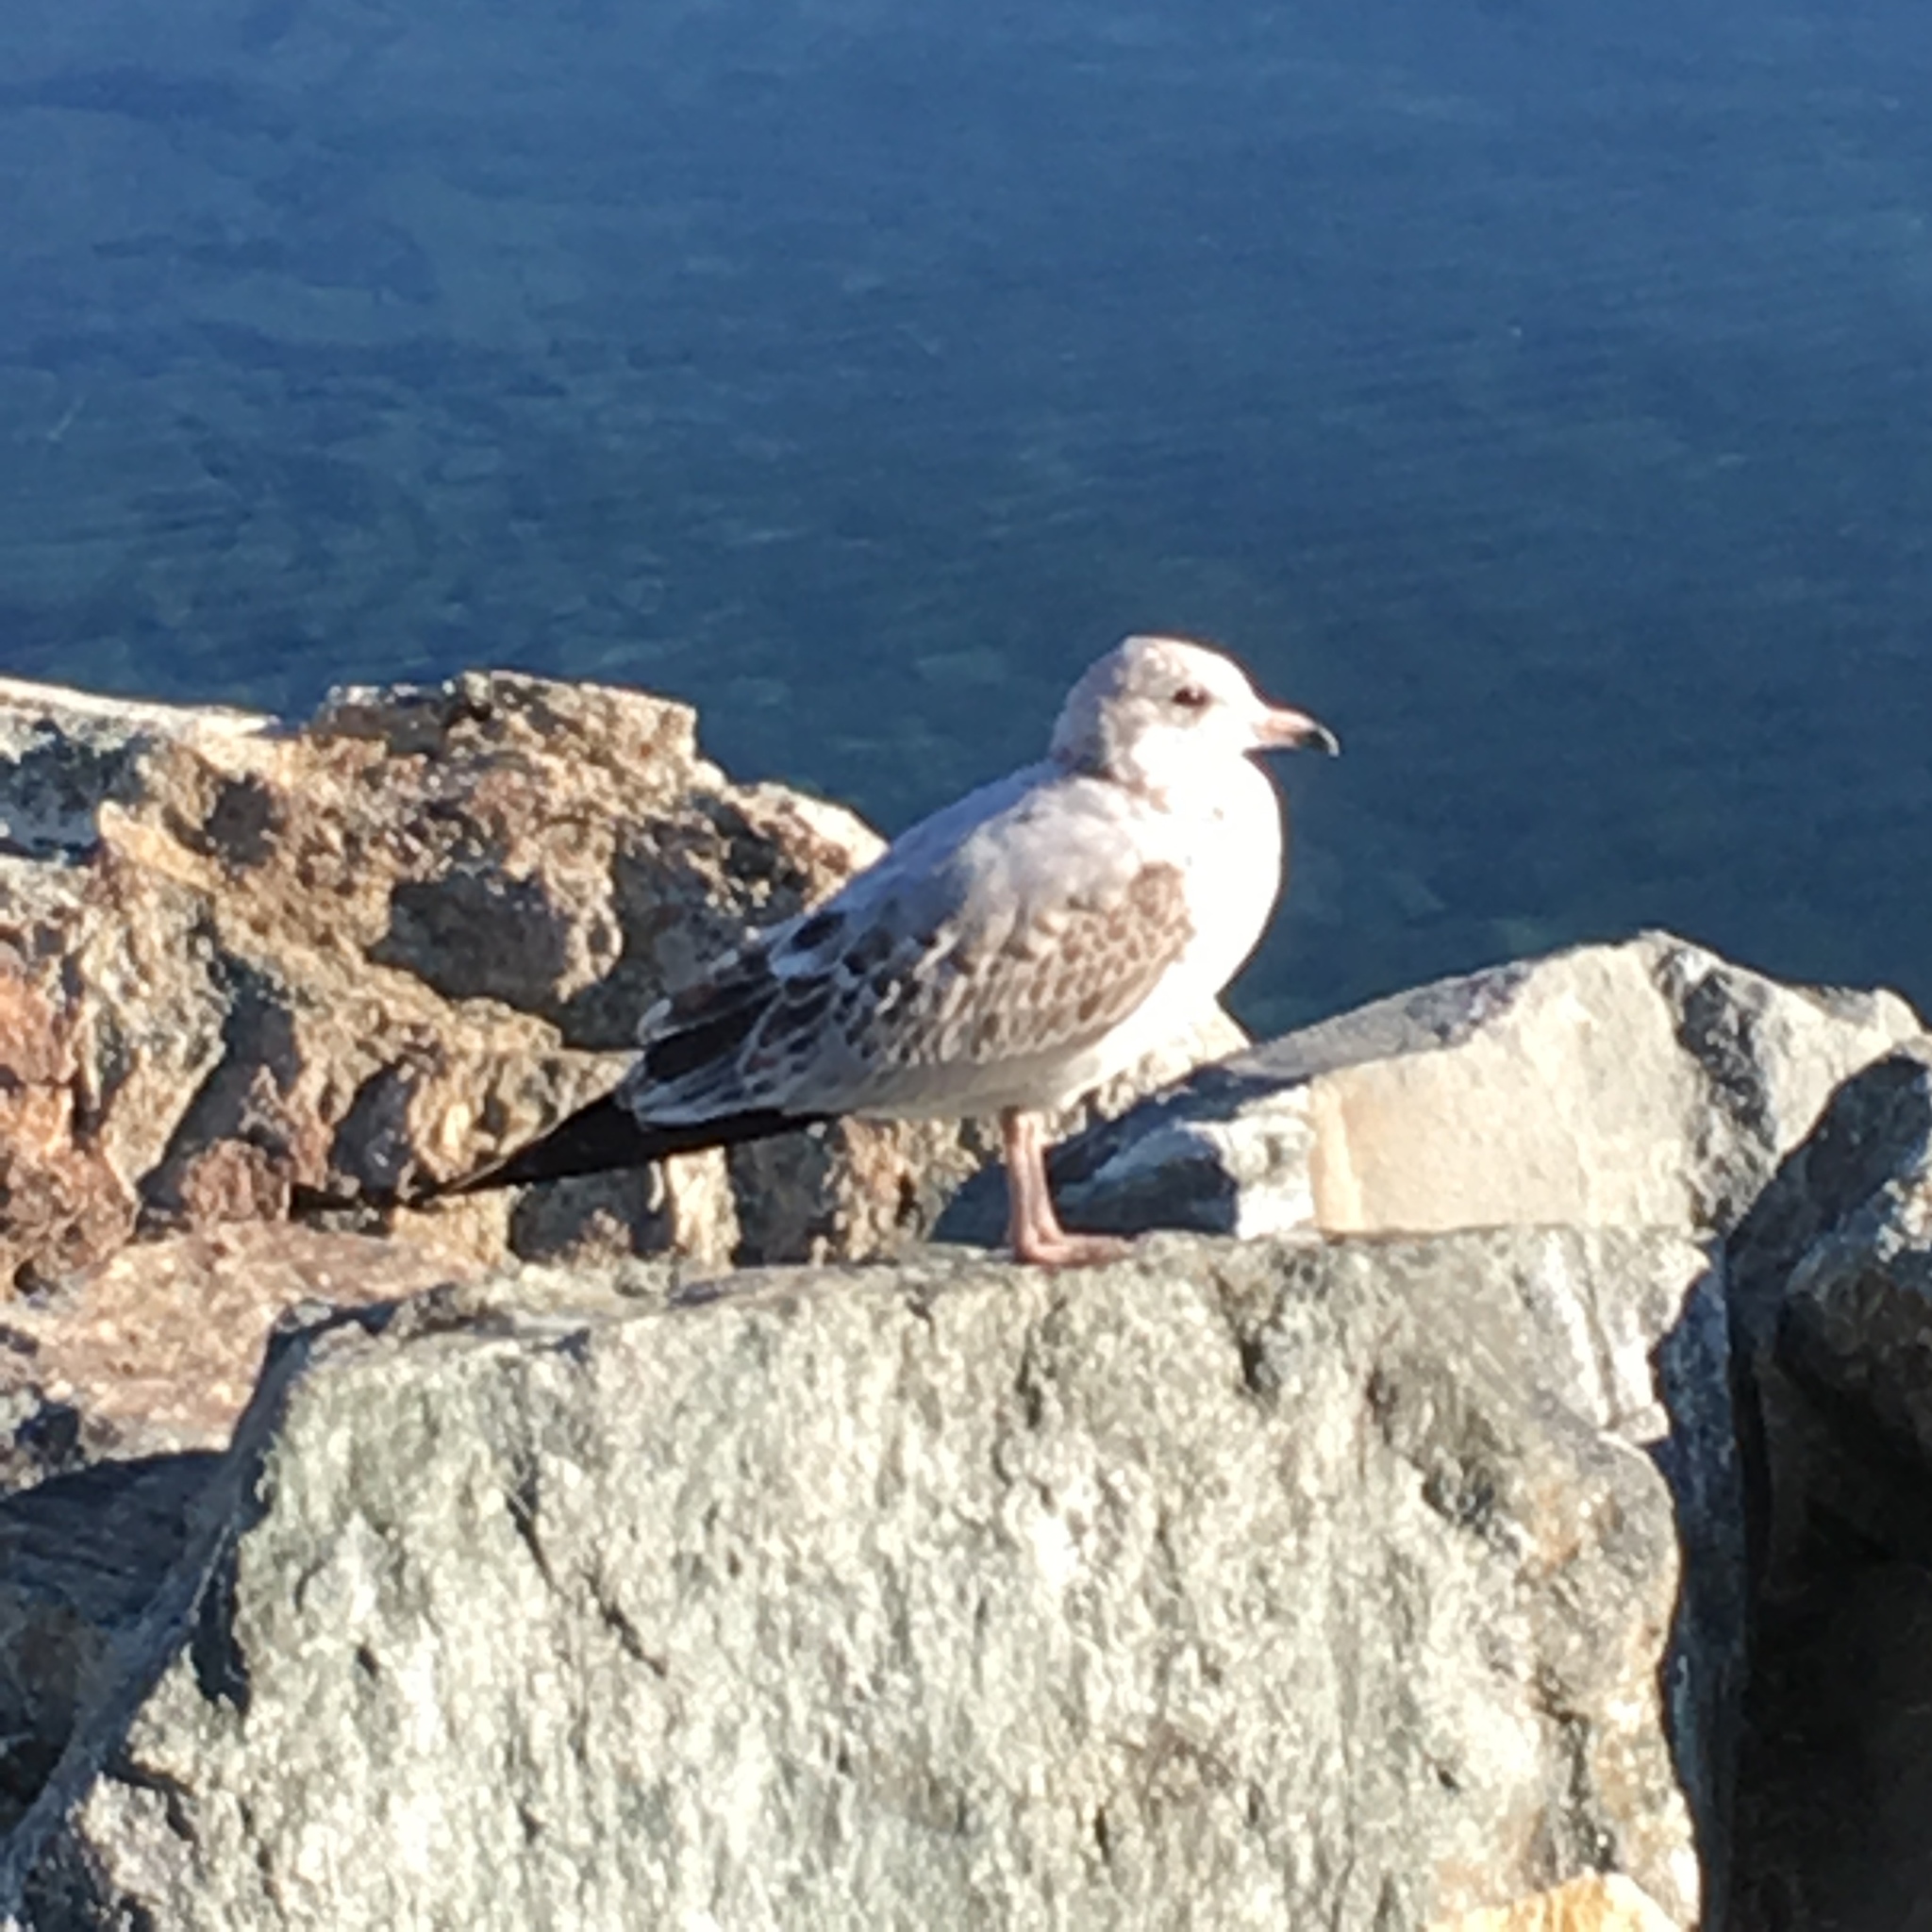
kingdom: Animalia
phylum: Chordata
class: Aves
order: Charadriiformes
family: Laridae
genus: Larus
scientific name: Larus delawarensis
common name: Ring-billed gull
